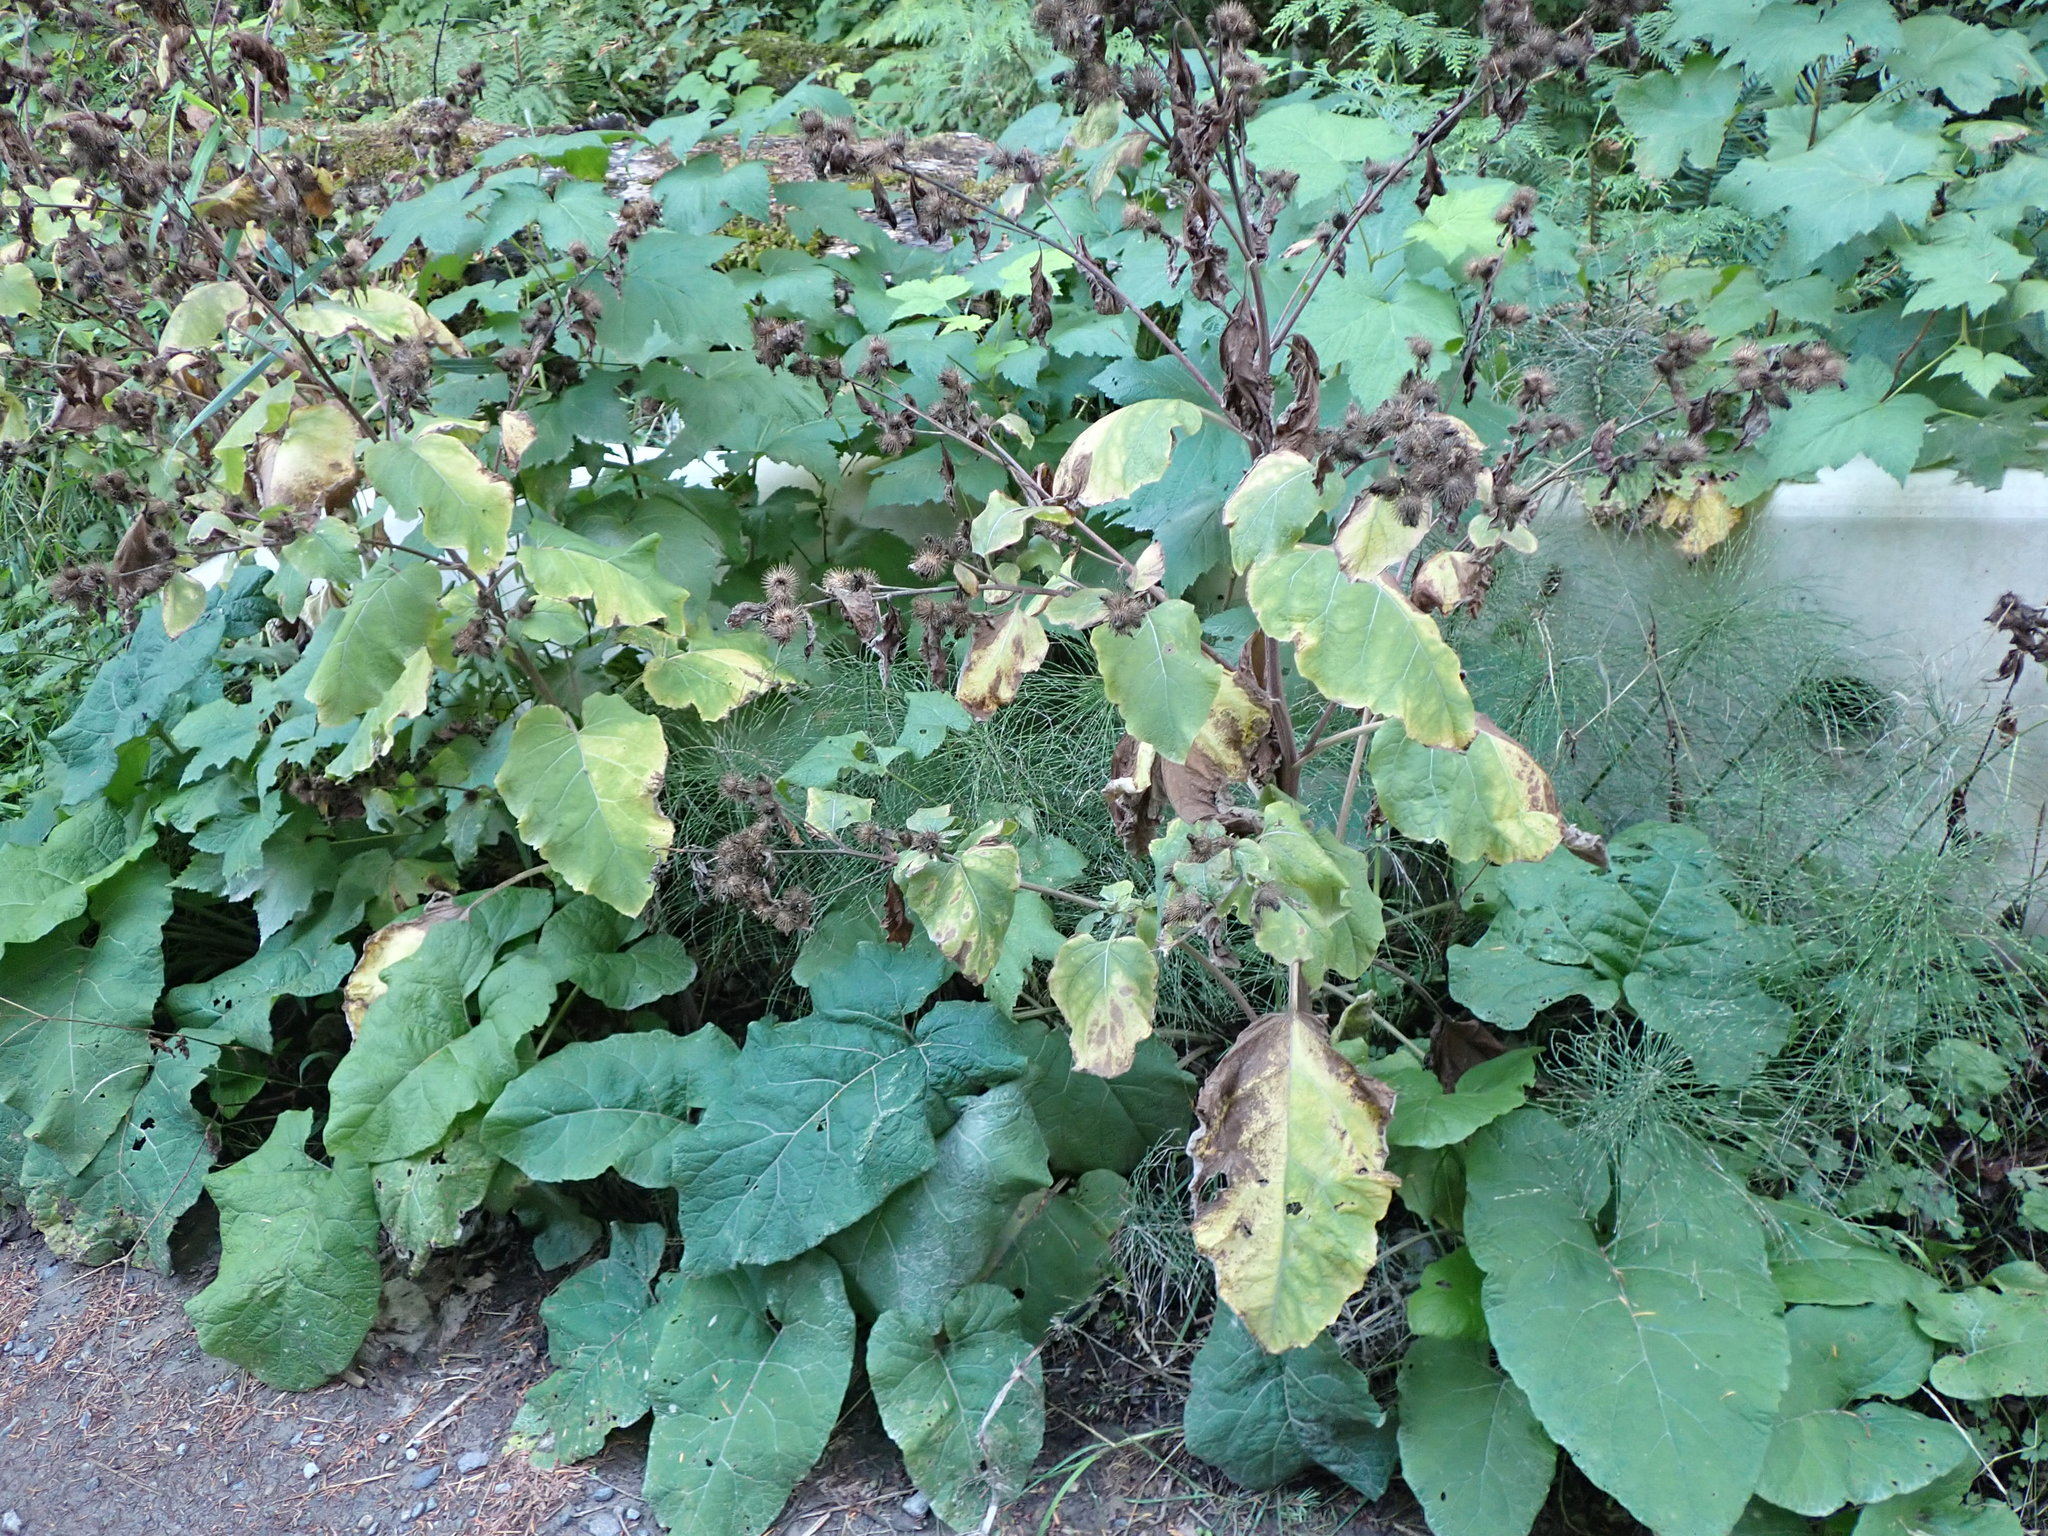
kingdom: Plantae
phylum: Tracheophyta
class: Magnoliopsida
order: Asterales
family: Asteraceae
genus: Arctium
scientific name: Arctium minus
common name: Lesser burdock
